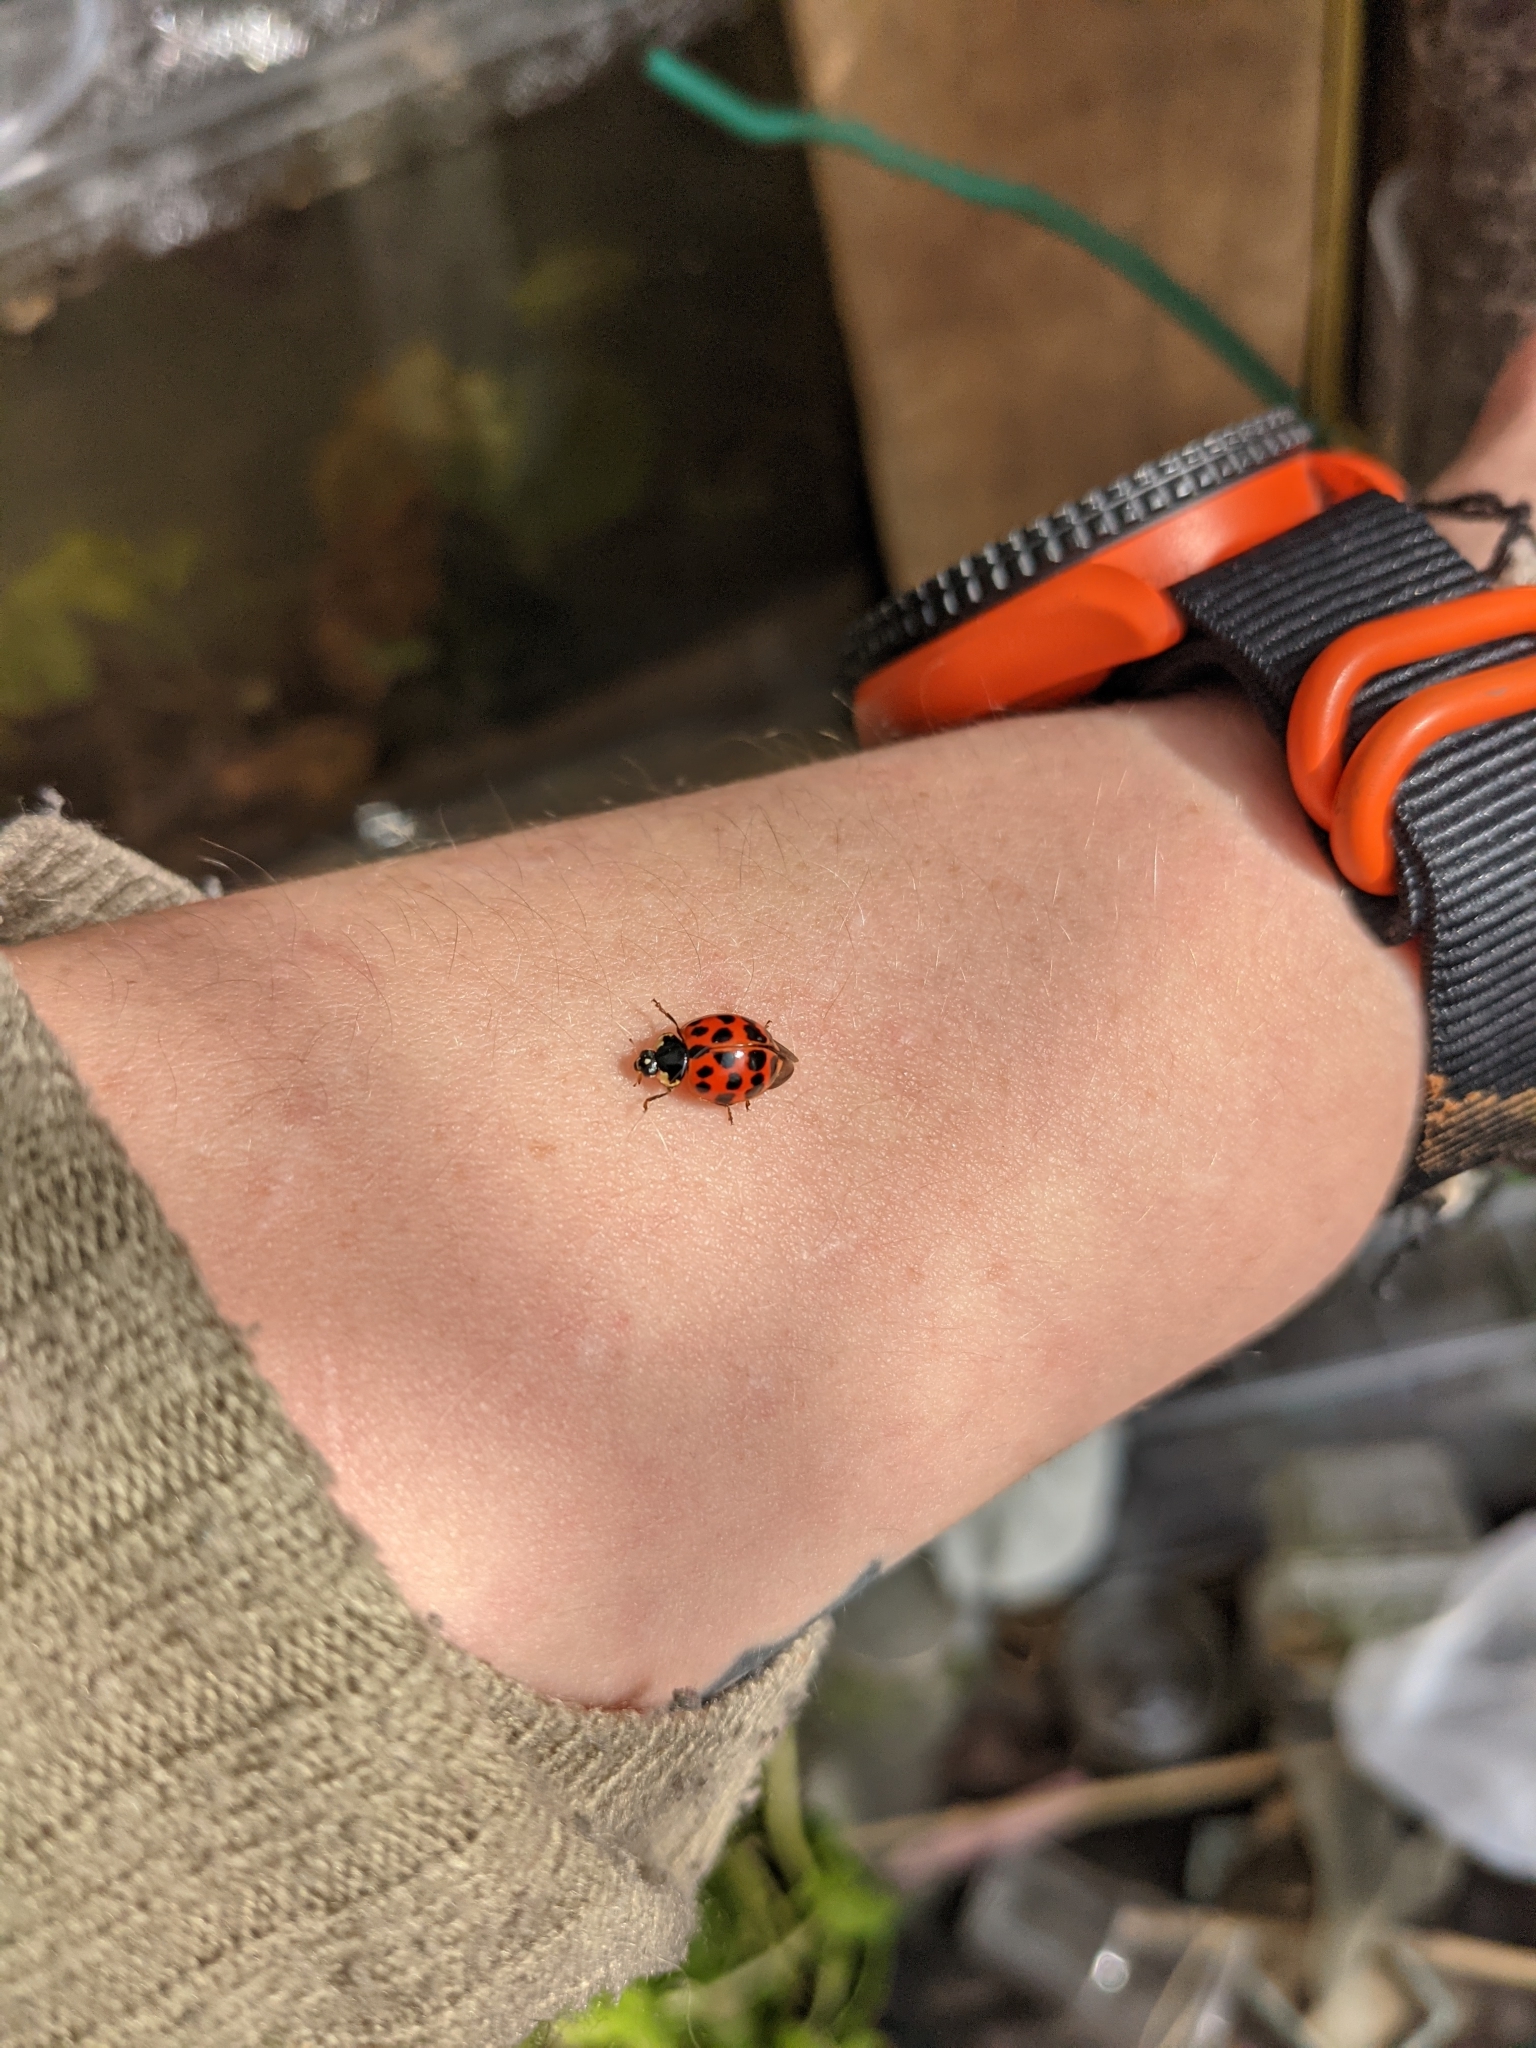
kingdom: Animalia
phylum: Arthropoda
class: Insecta
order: Coleoptera
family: Coccinellidae
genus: Harmonia
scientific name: Harmonia axyridis
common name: Harlequin ladybird
